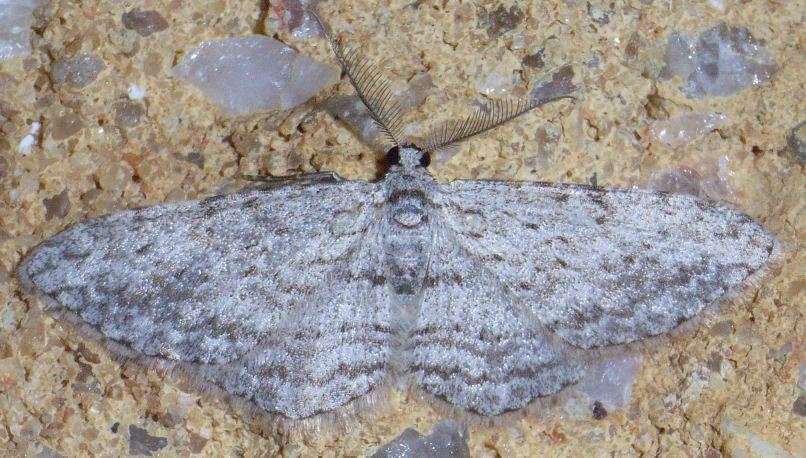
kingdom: Animalia
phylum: Arthropoda
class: Insecta
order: Lepidoptera
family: Geometridae
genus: Phelotis
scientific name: Phelotis cognata
